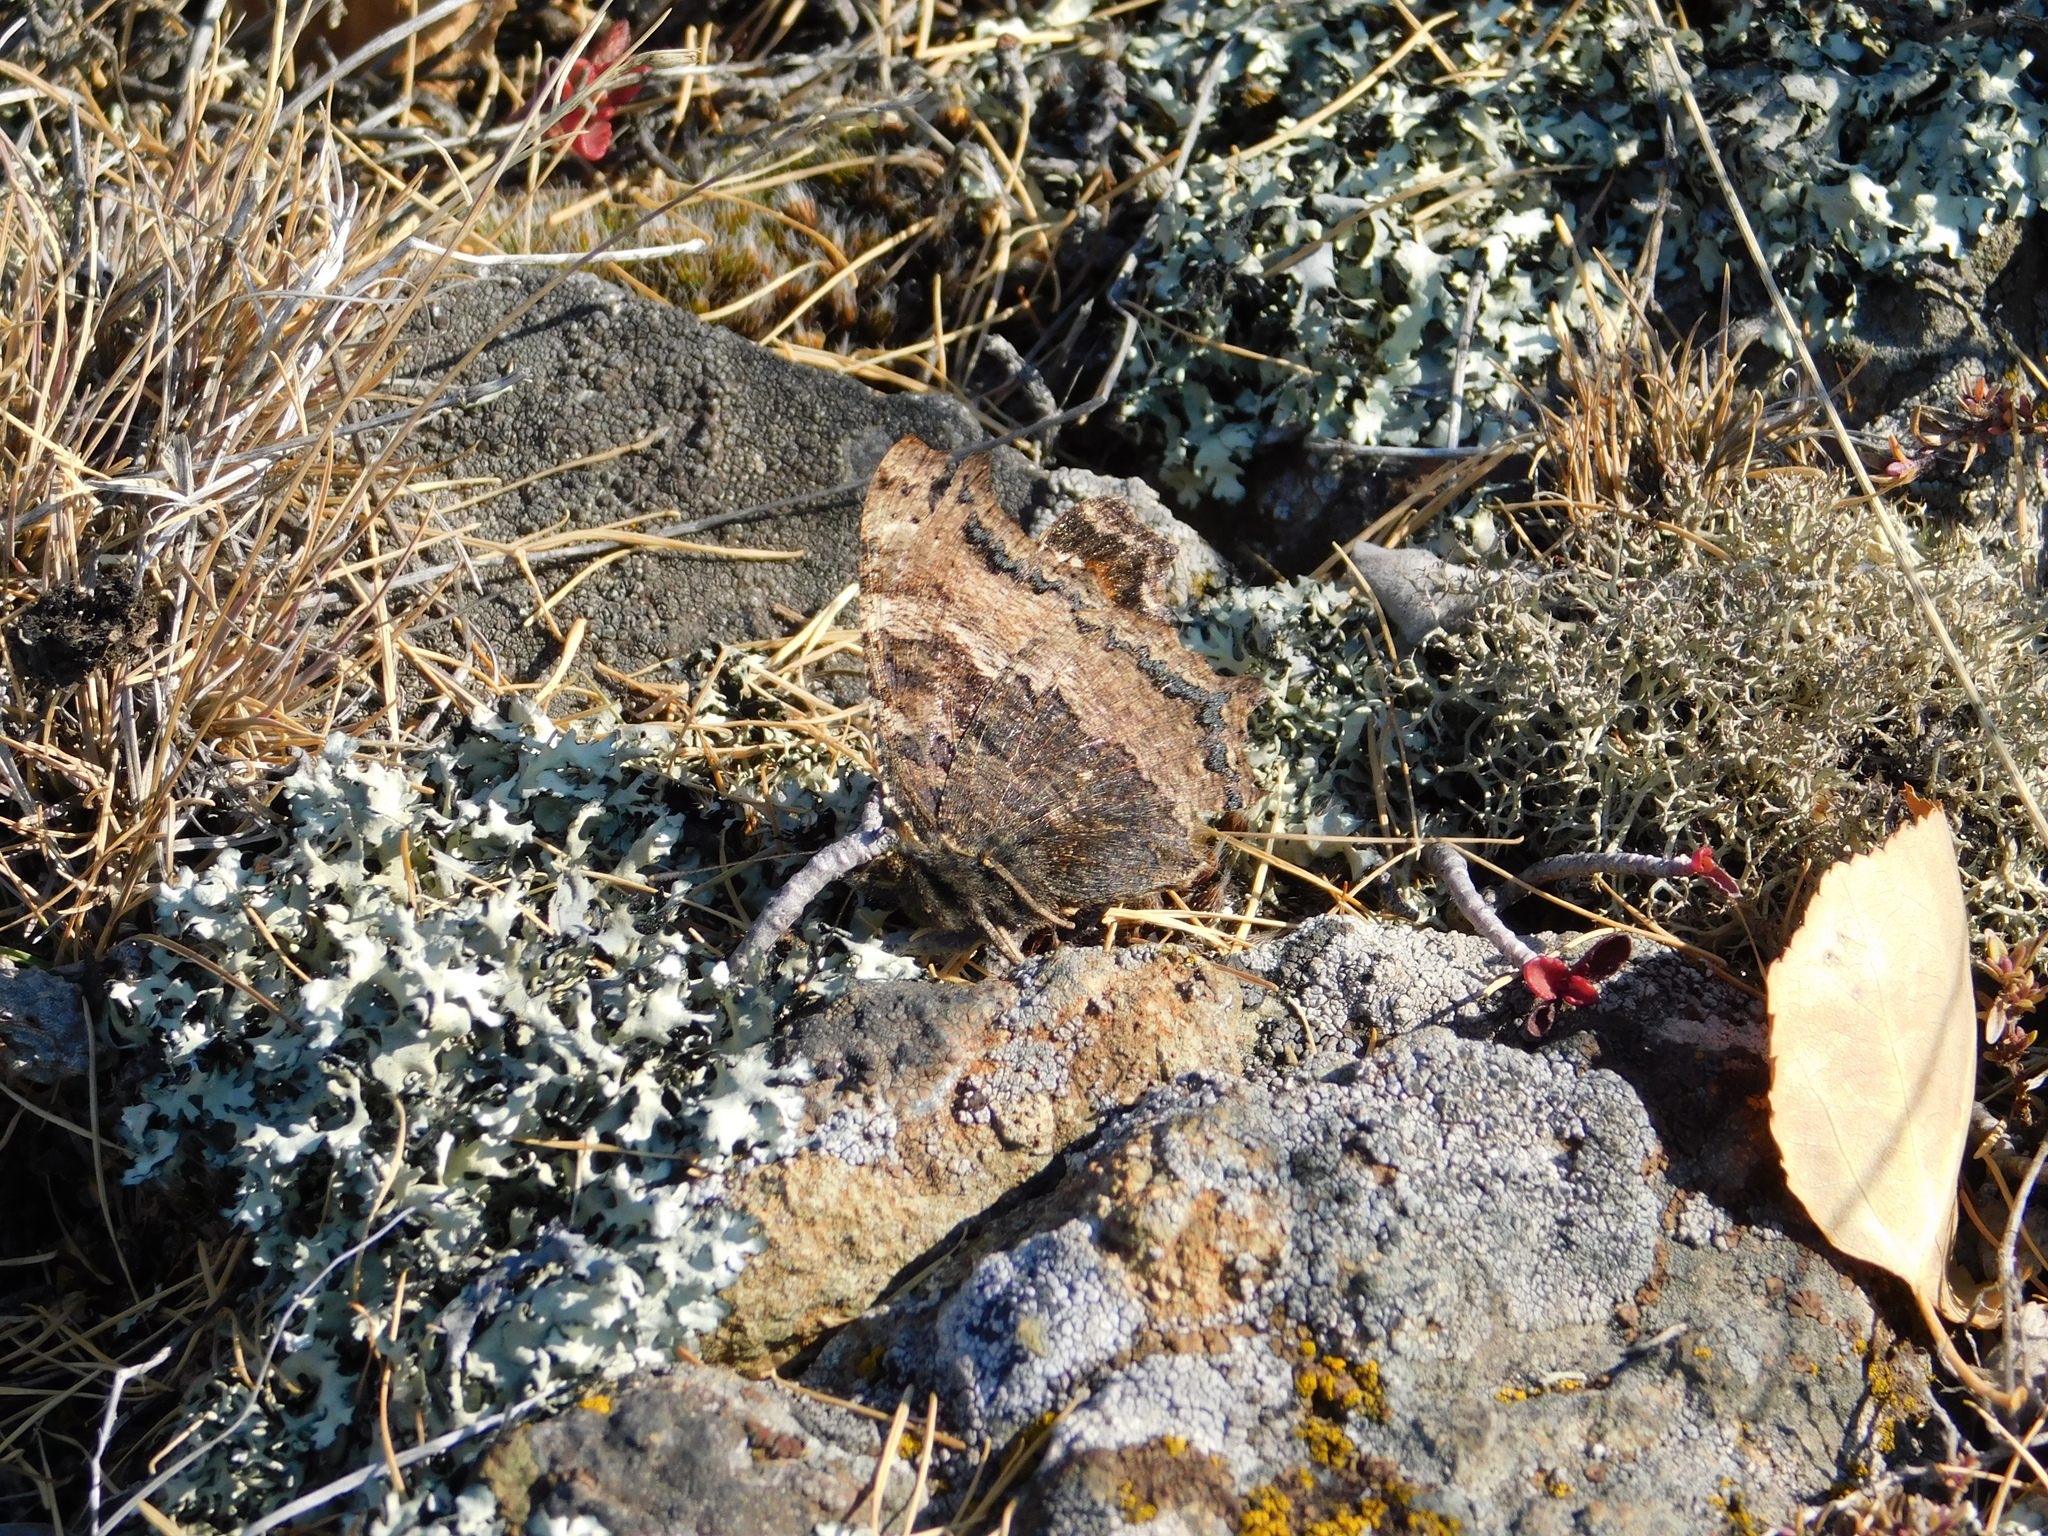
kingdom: Animalia
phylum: Arthropoda
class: Insecta
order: Lepidoptera
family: Nymphalidae
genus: Nymphalis
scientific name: Nymphalis xanthomelas
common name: Scarce tortoiseshell
